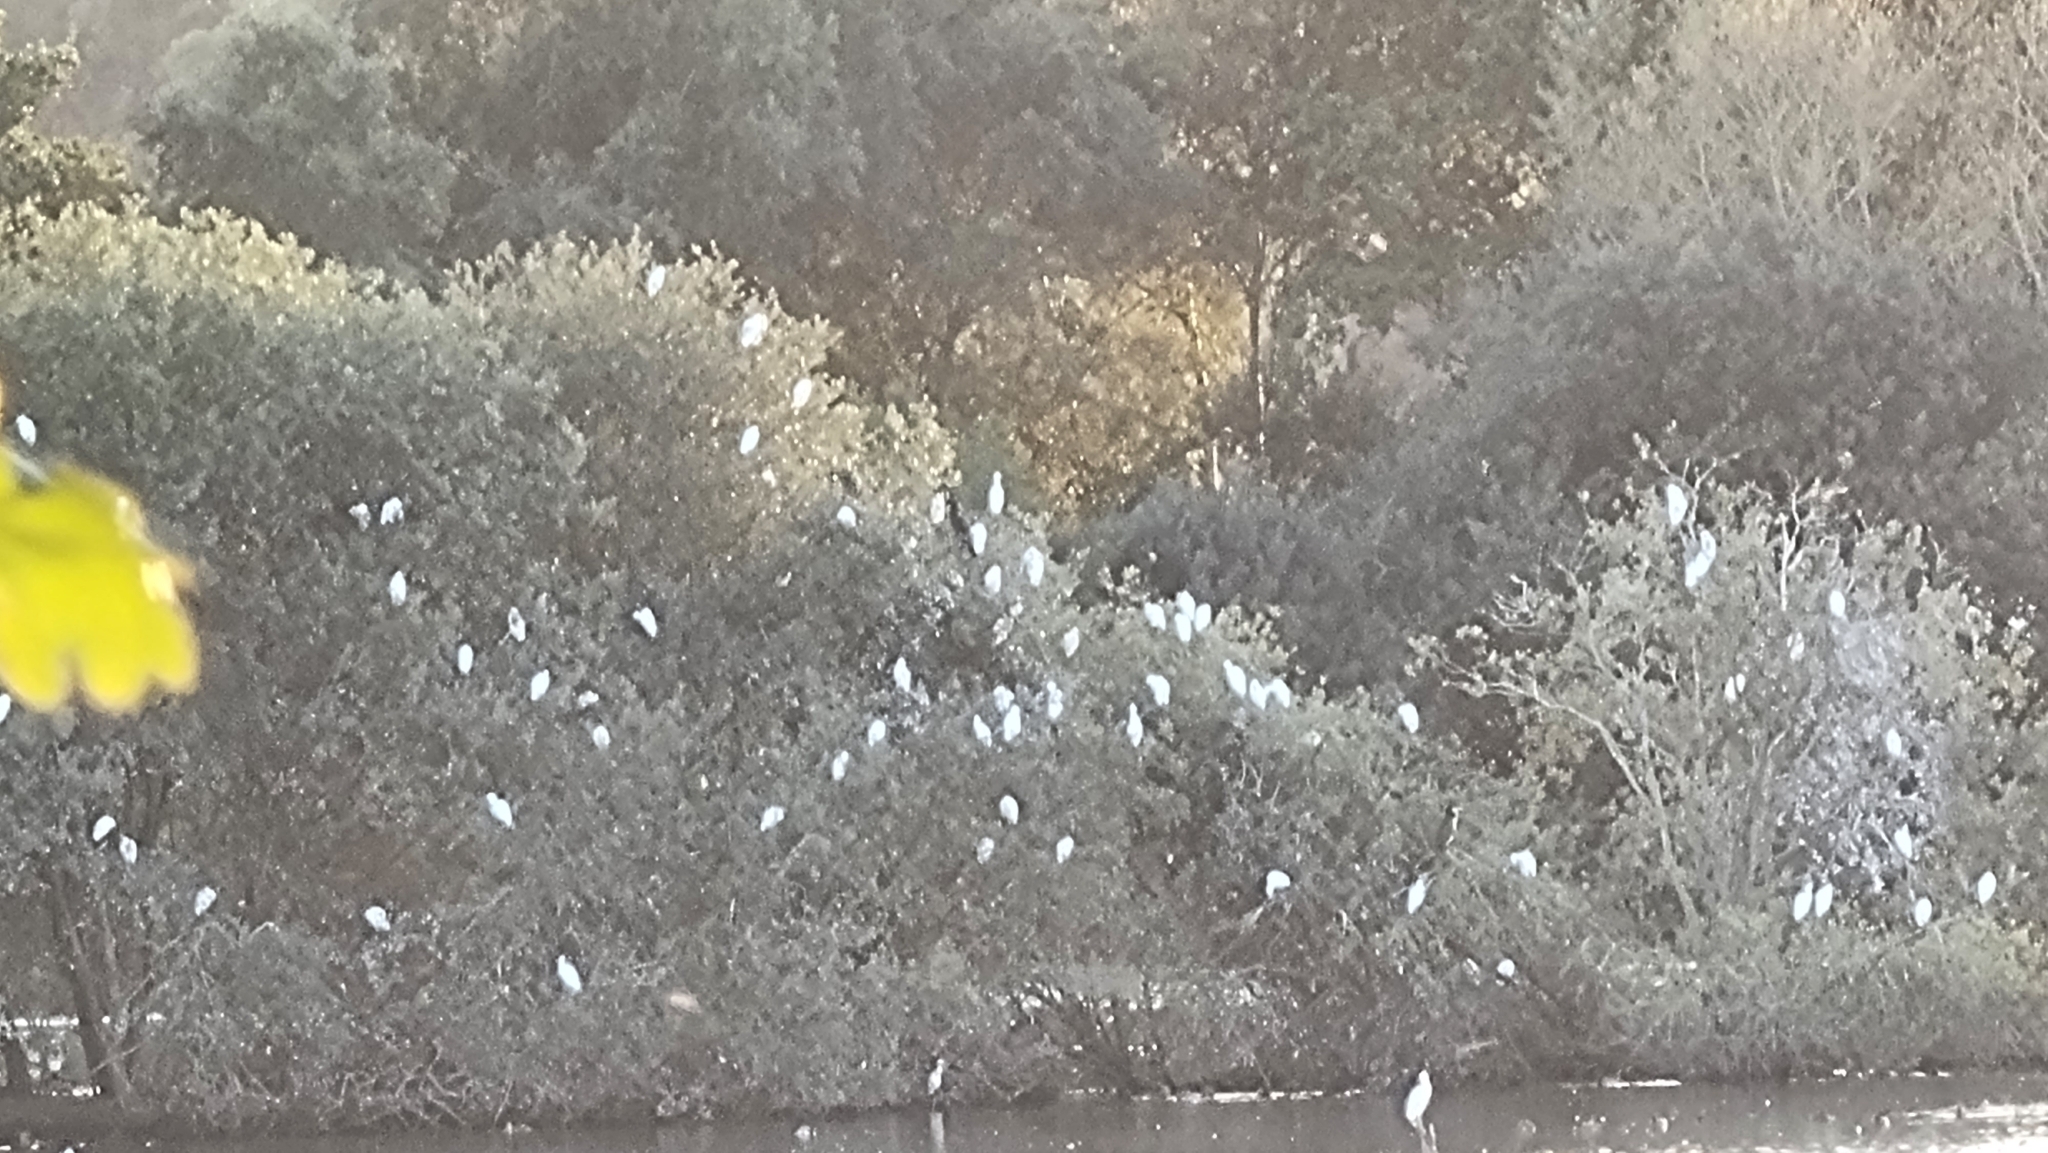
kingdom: Animalia
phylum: Chordata
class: Aves
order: Pelecaniformes
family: Ardeidae
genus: Bubulcus
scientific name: Bubulcus ibis
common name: Cattle egret
